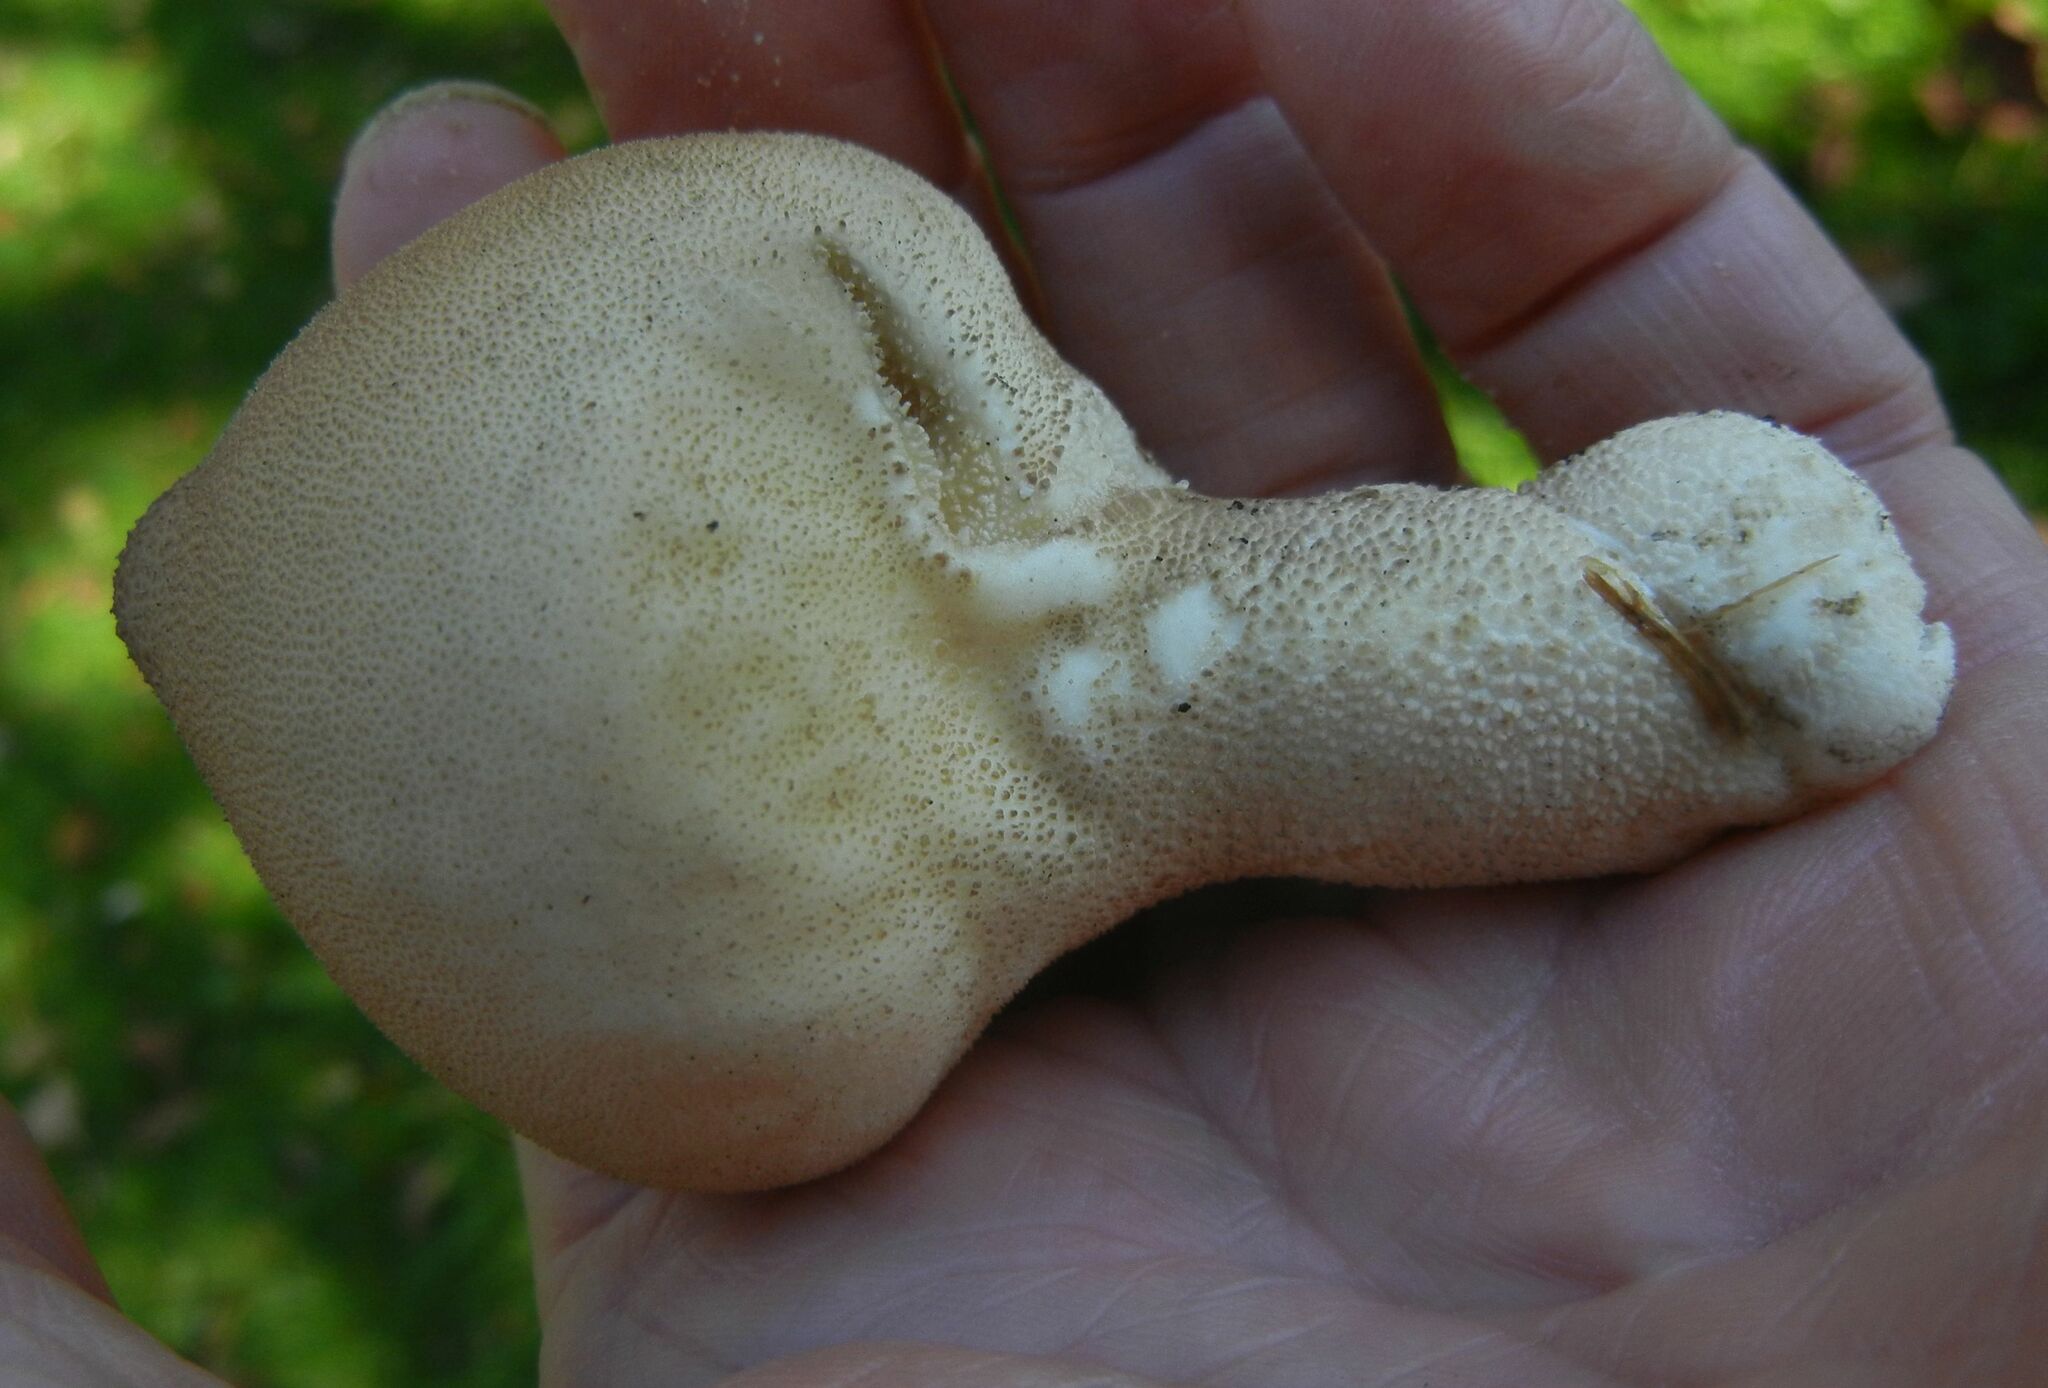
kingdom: Fungi
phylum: Basidiomycota
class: Agaricomycetes
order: Agaricales
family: Lycoperdaceae
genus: Apioperdon
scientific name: Apioperdon pyriforme
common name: Pear-shaped puffball
